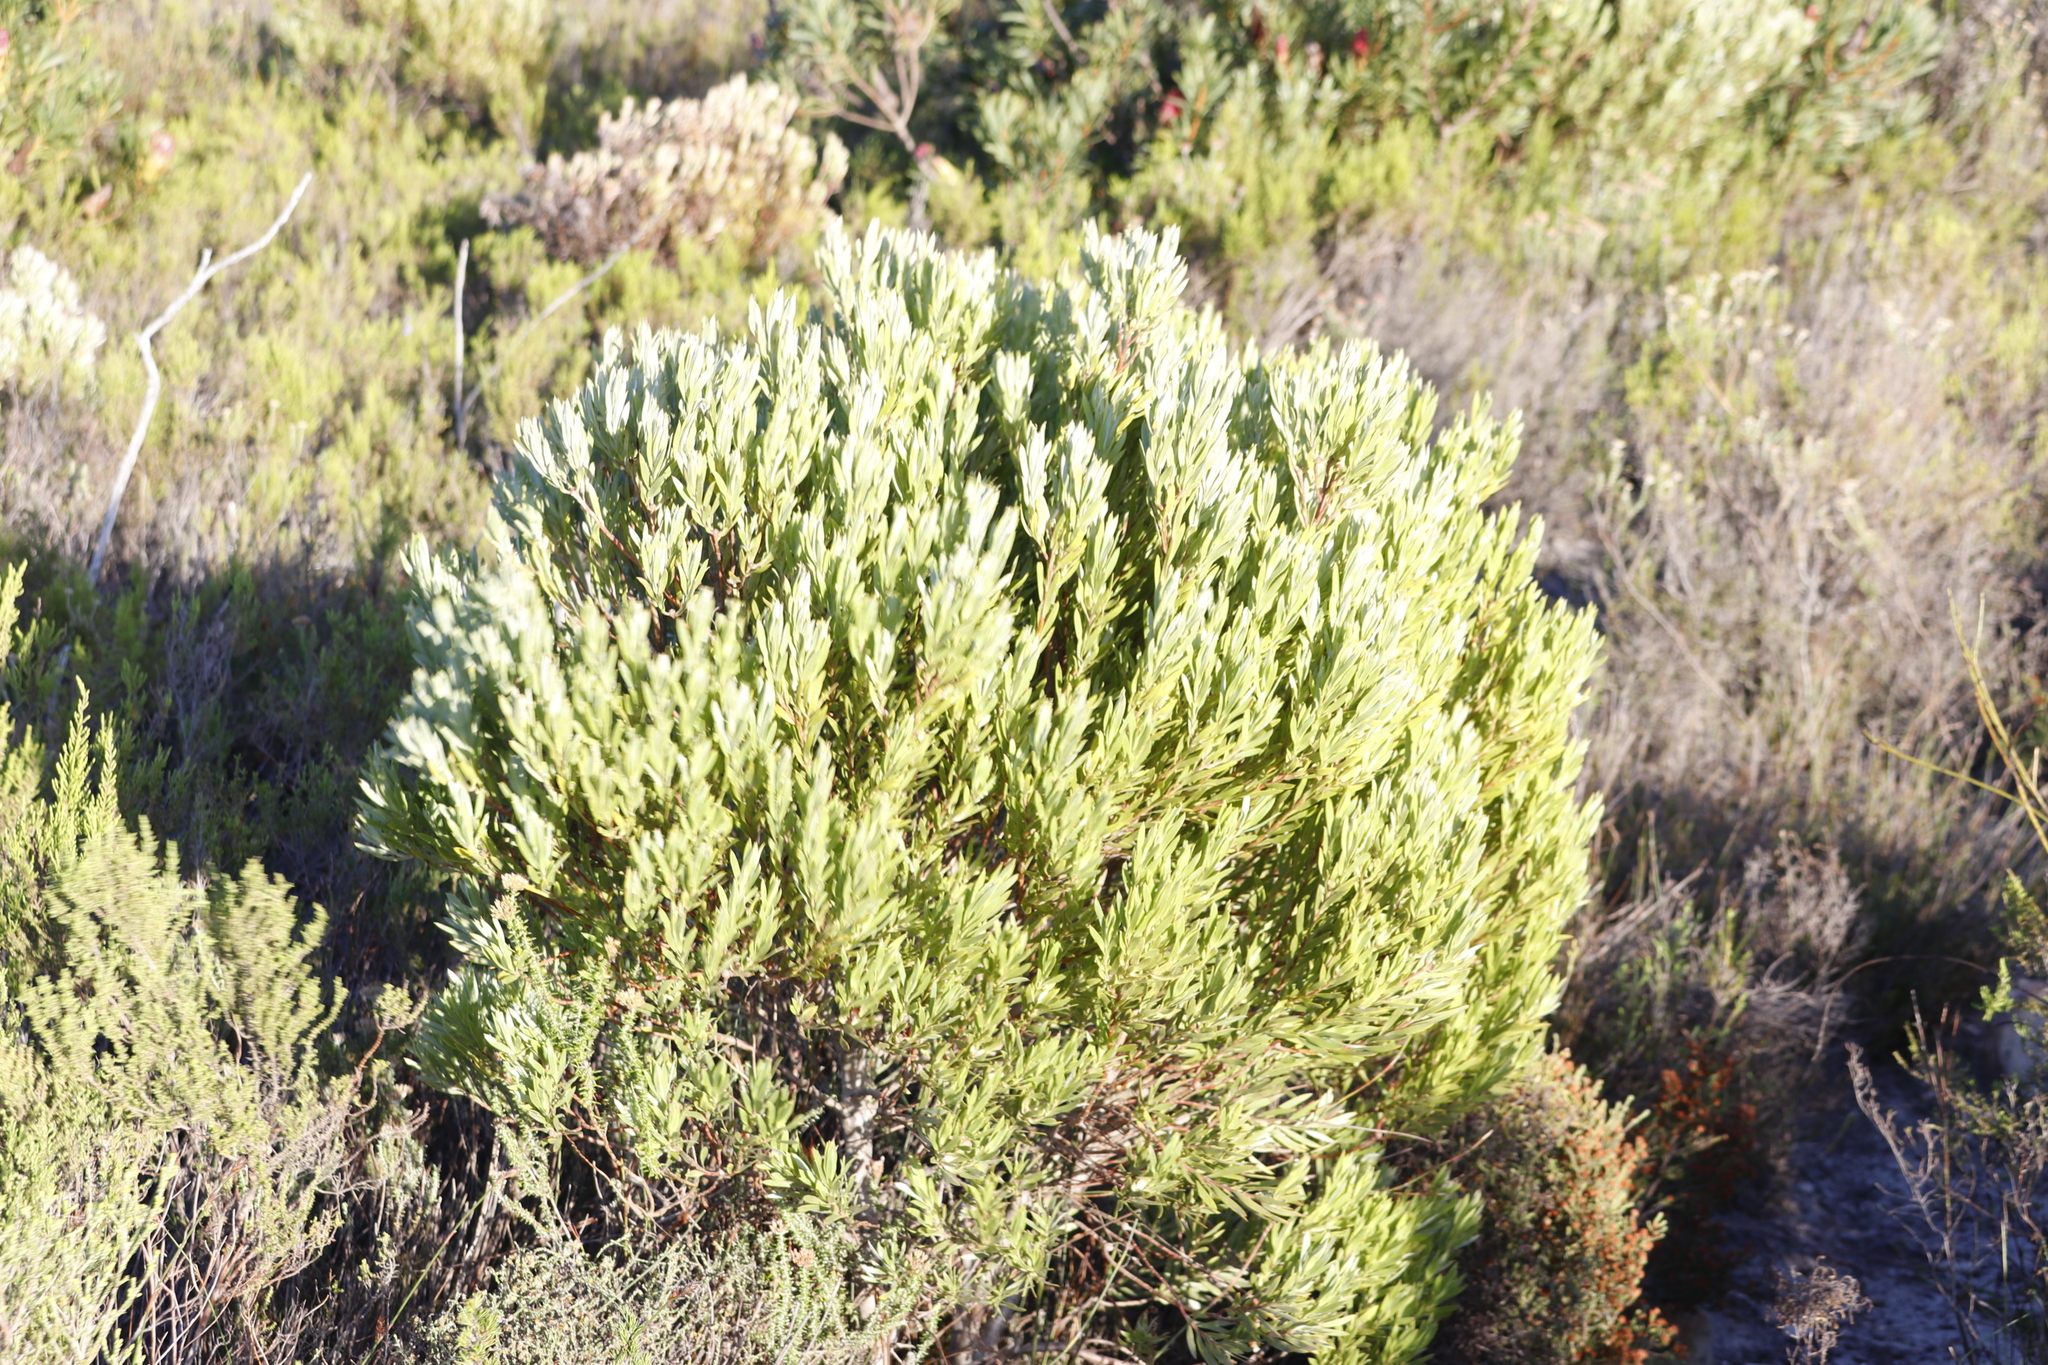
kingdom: Plantae
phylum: Tracheophyta
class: Magnoliopsida
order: Proteales
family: Proteaceae
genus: Leucadendron
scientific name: Leucadendron xanthoconus
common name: Sickle-leaf conebush
